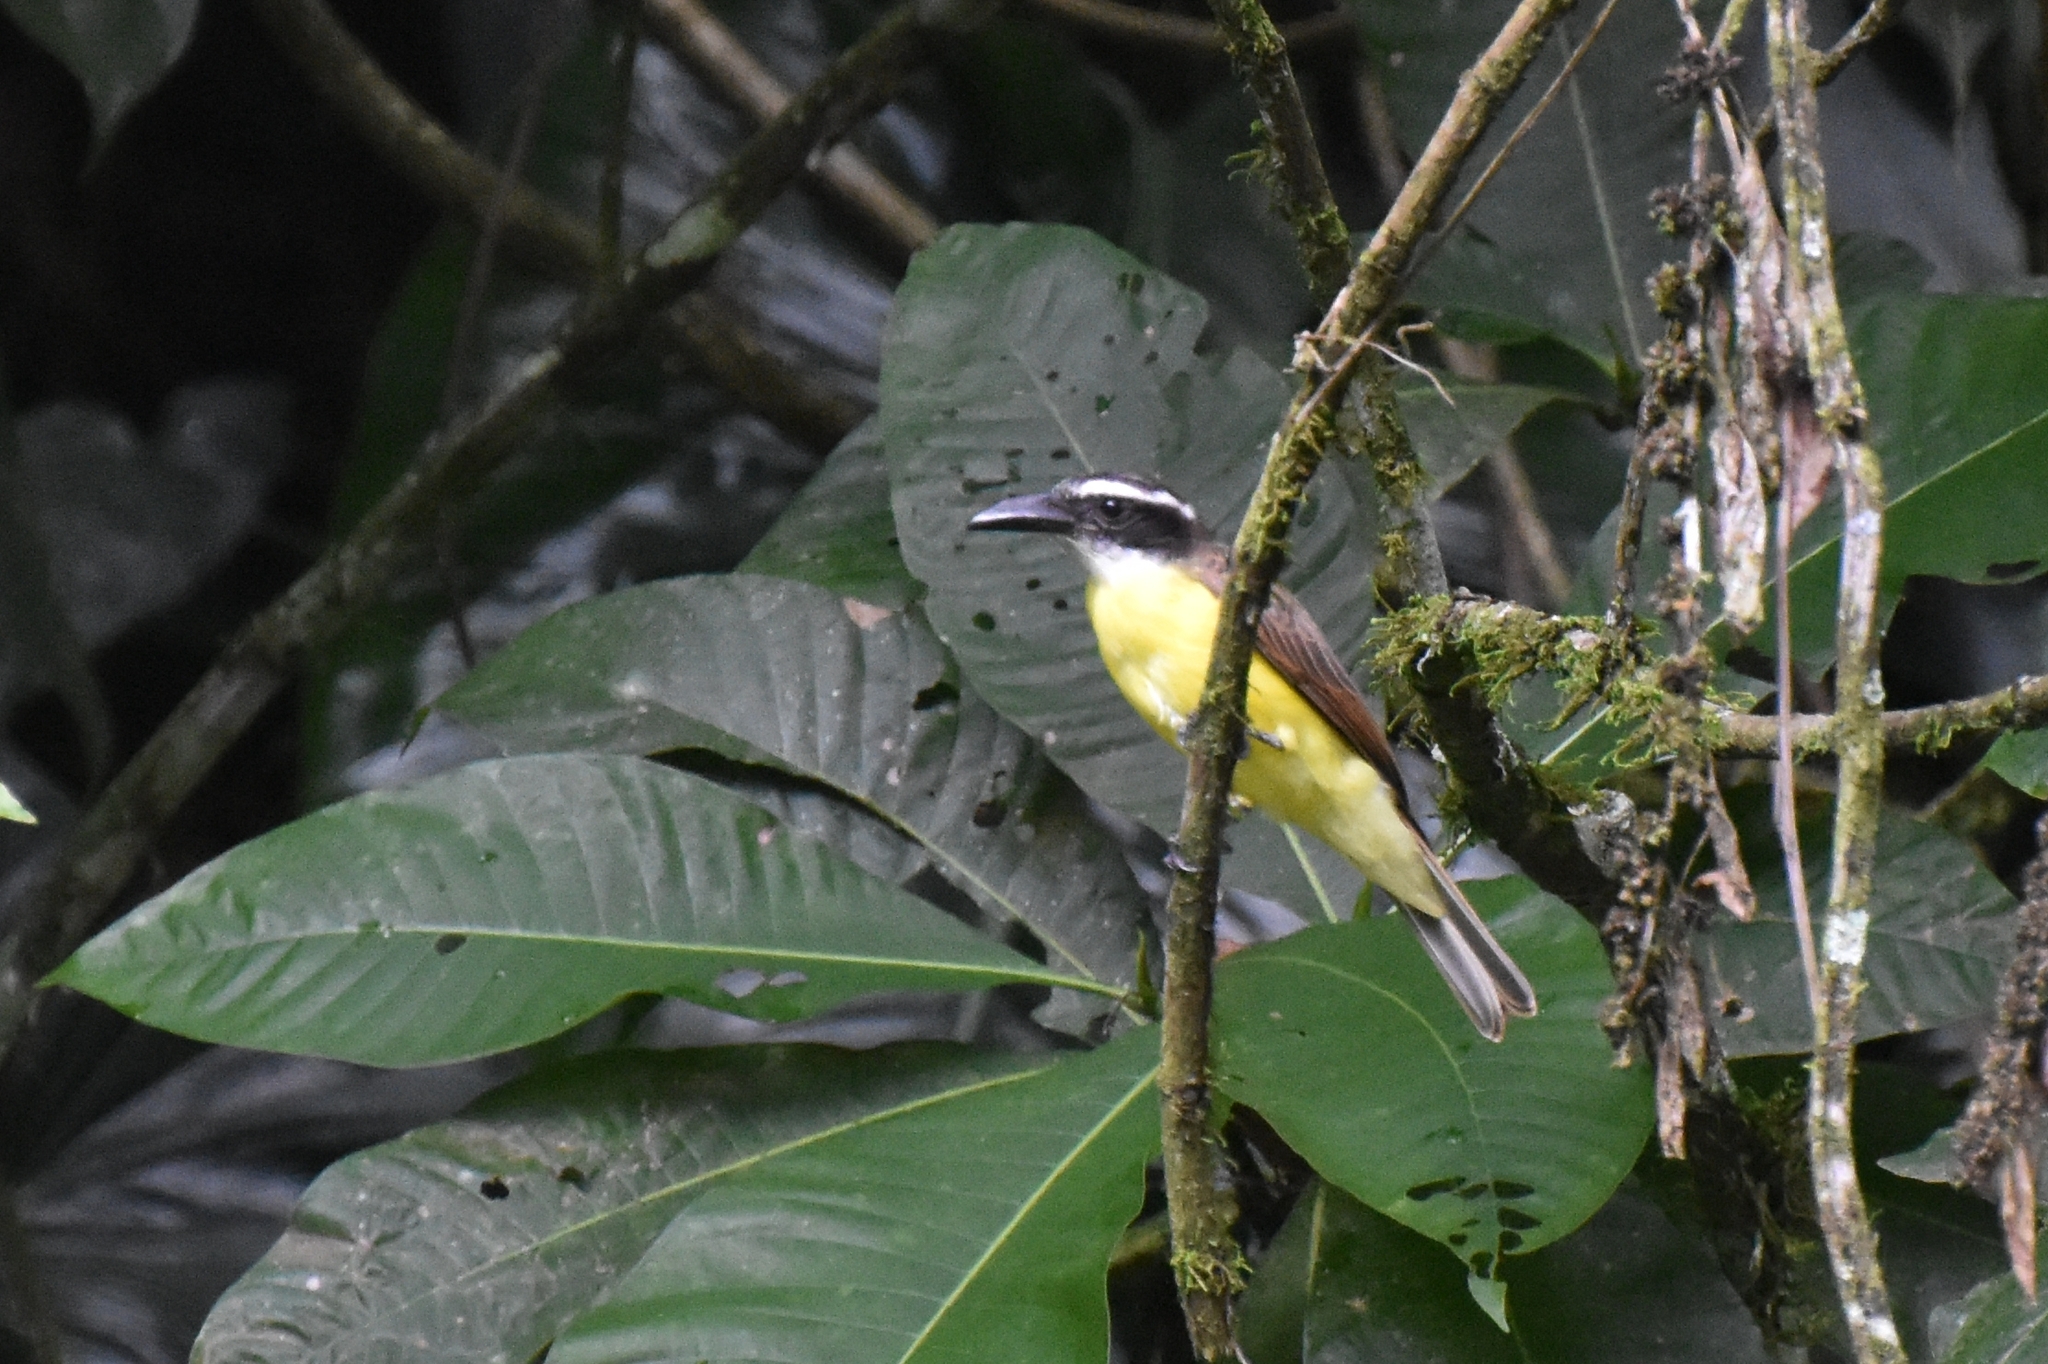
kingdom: Animalia
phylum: Chordata
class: Aves
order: Passeriformes
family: Tyrannidae
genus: Megarynchus
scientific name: Megarynchus pitangua
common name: Boat-billed flycatcher
